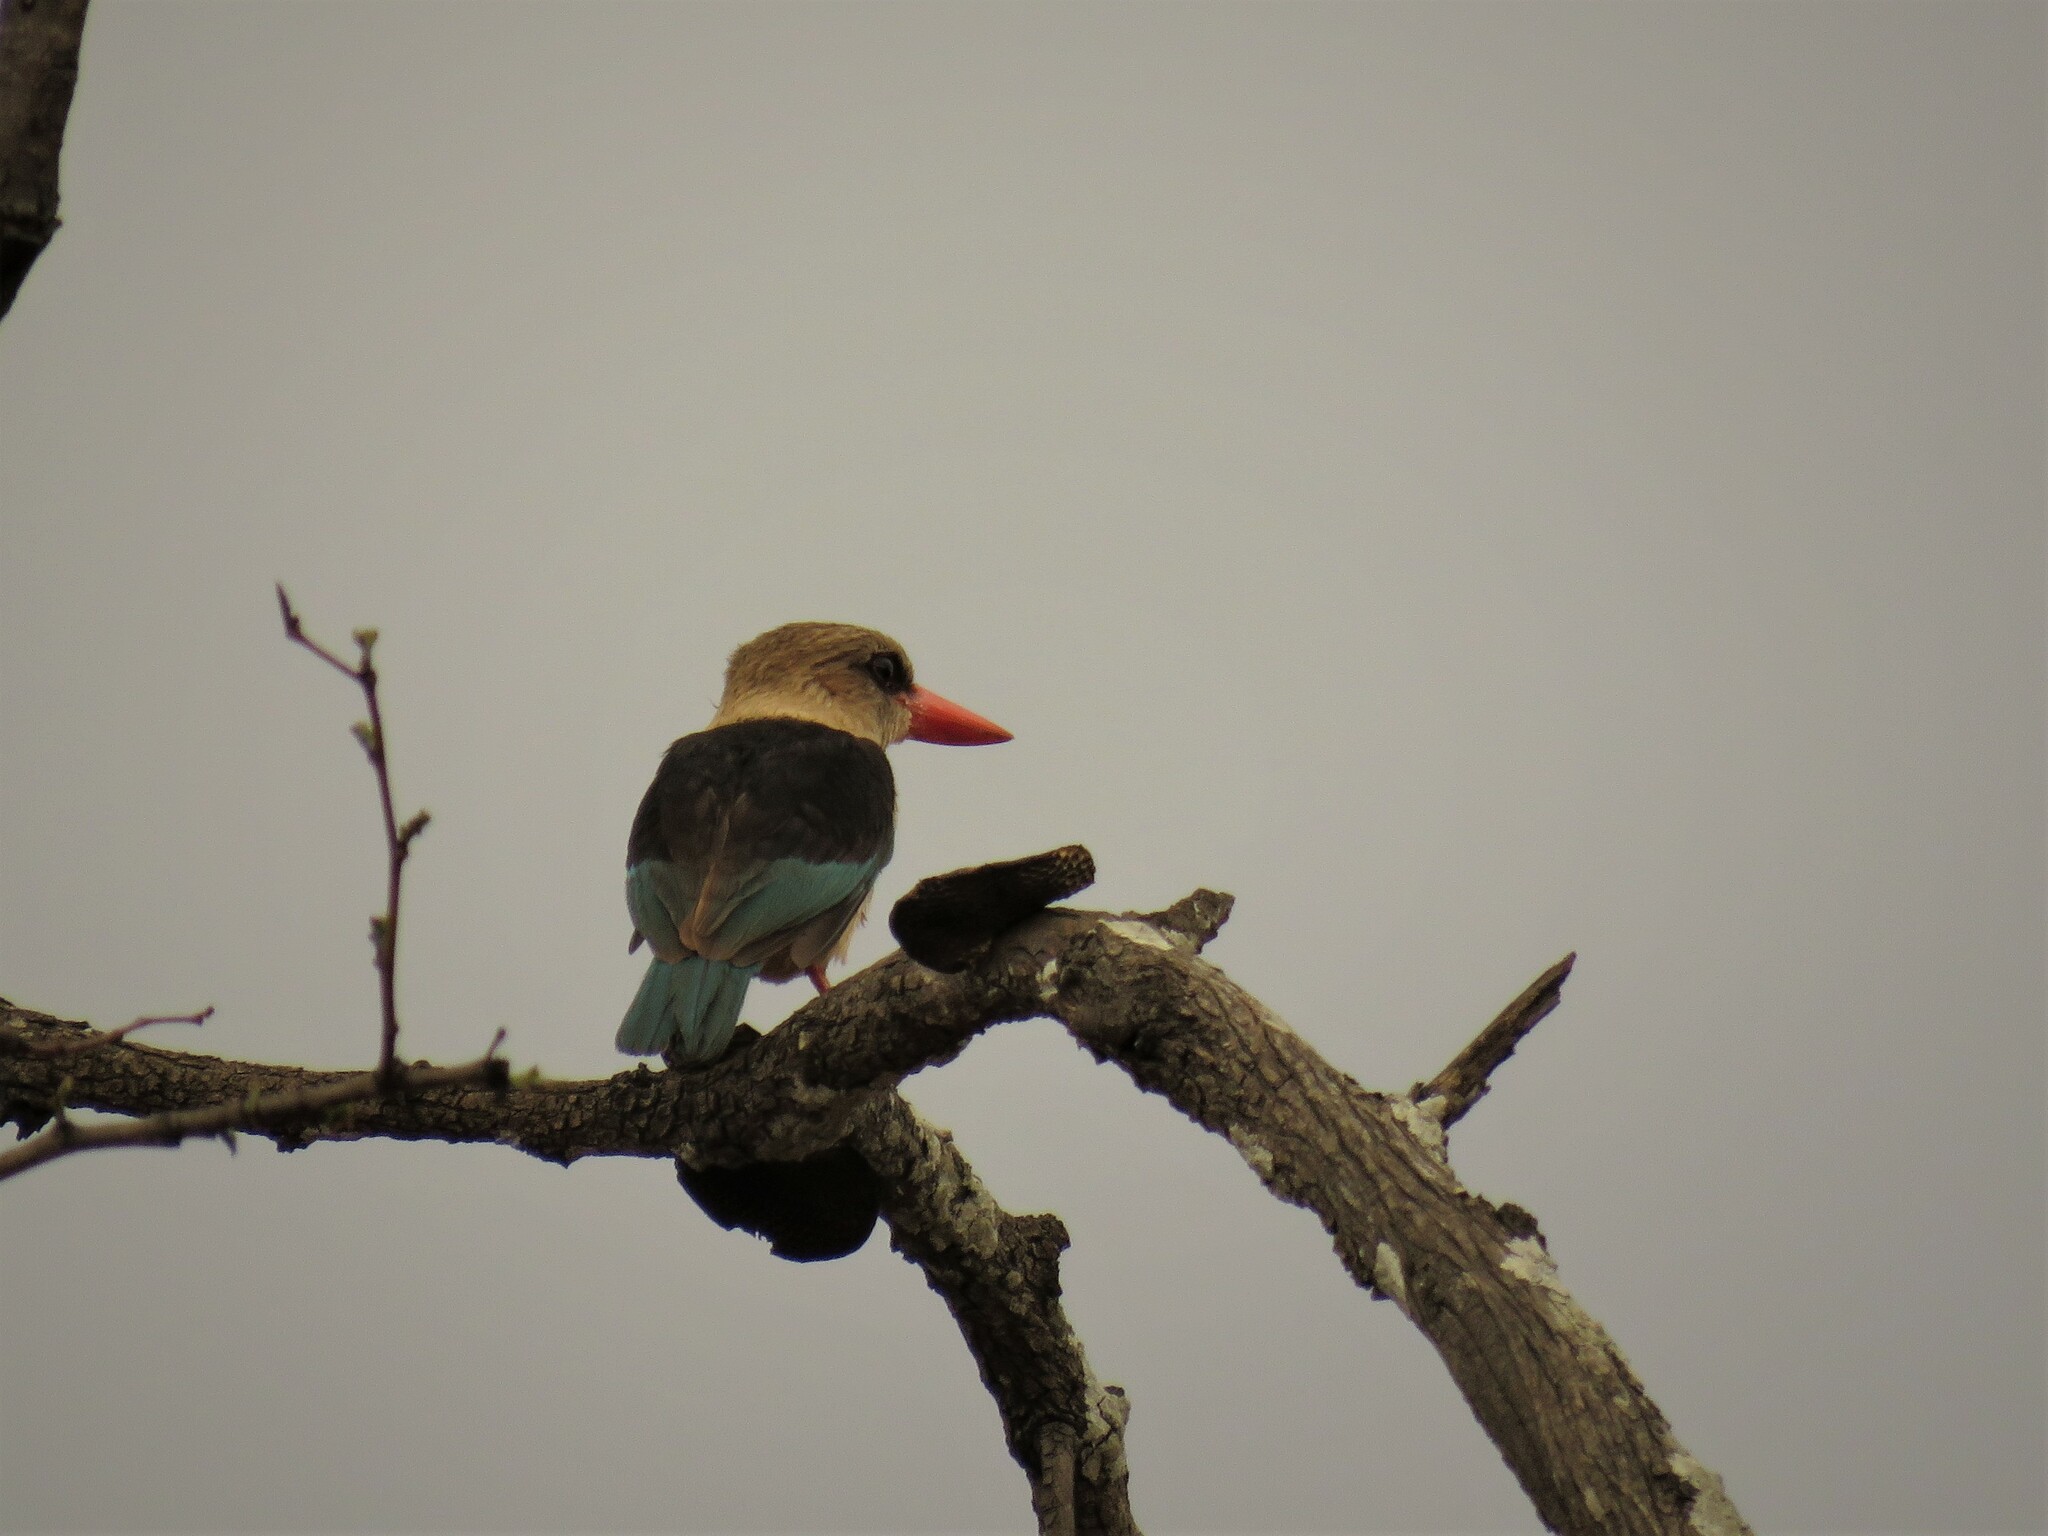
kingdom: Animalia
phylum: Chordata
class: Aves
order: Coraciiformes
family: Alcedinidae
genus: Halcyon
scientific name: Halcyon albiventris
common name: Brown-hooded kingfisher
